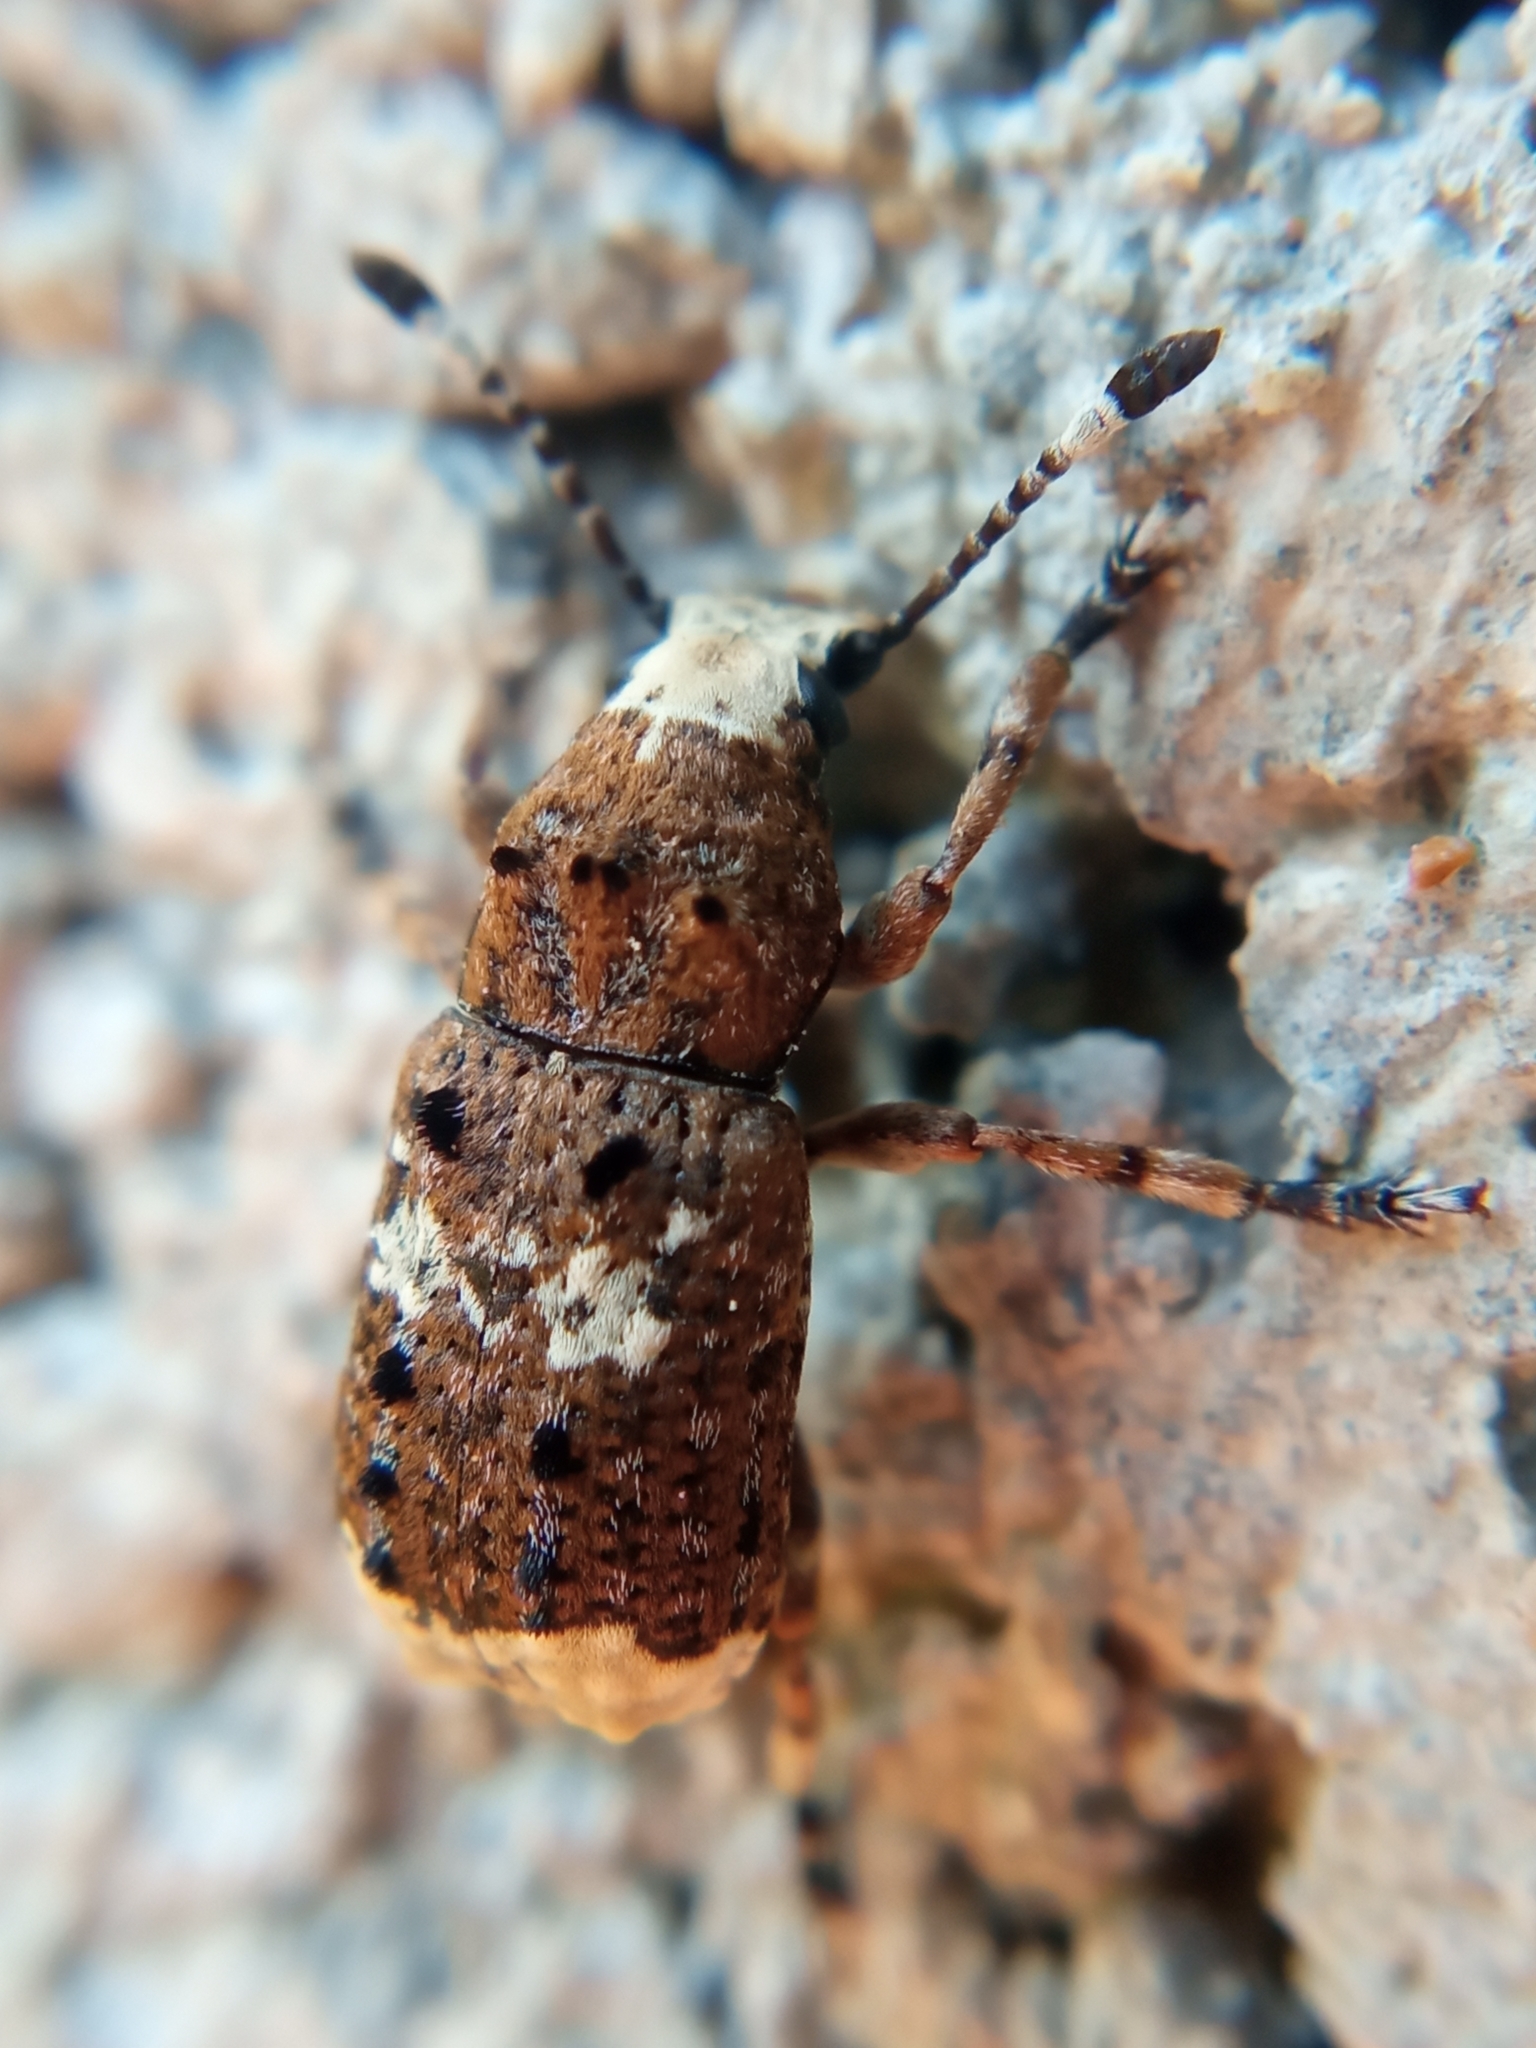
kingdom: Animalia
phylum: Arthropoda
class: Insecta
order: Coleoptera
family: Anthribidae
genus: Platystomos
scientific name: Platystomos albinus
